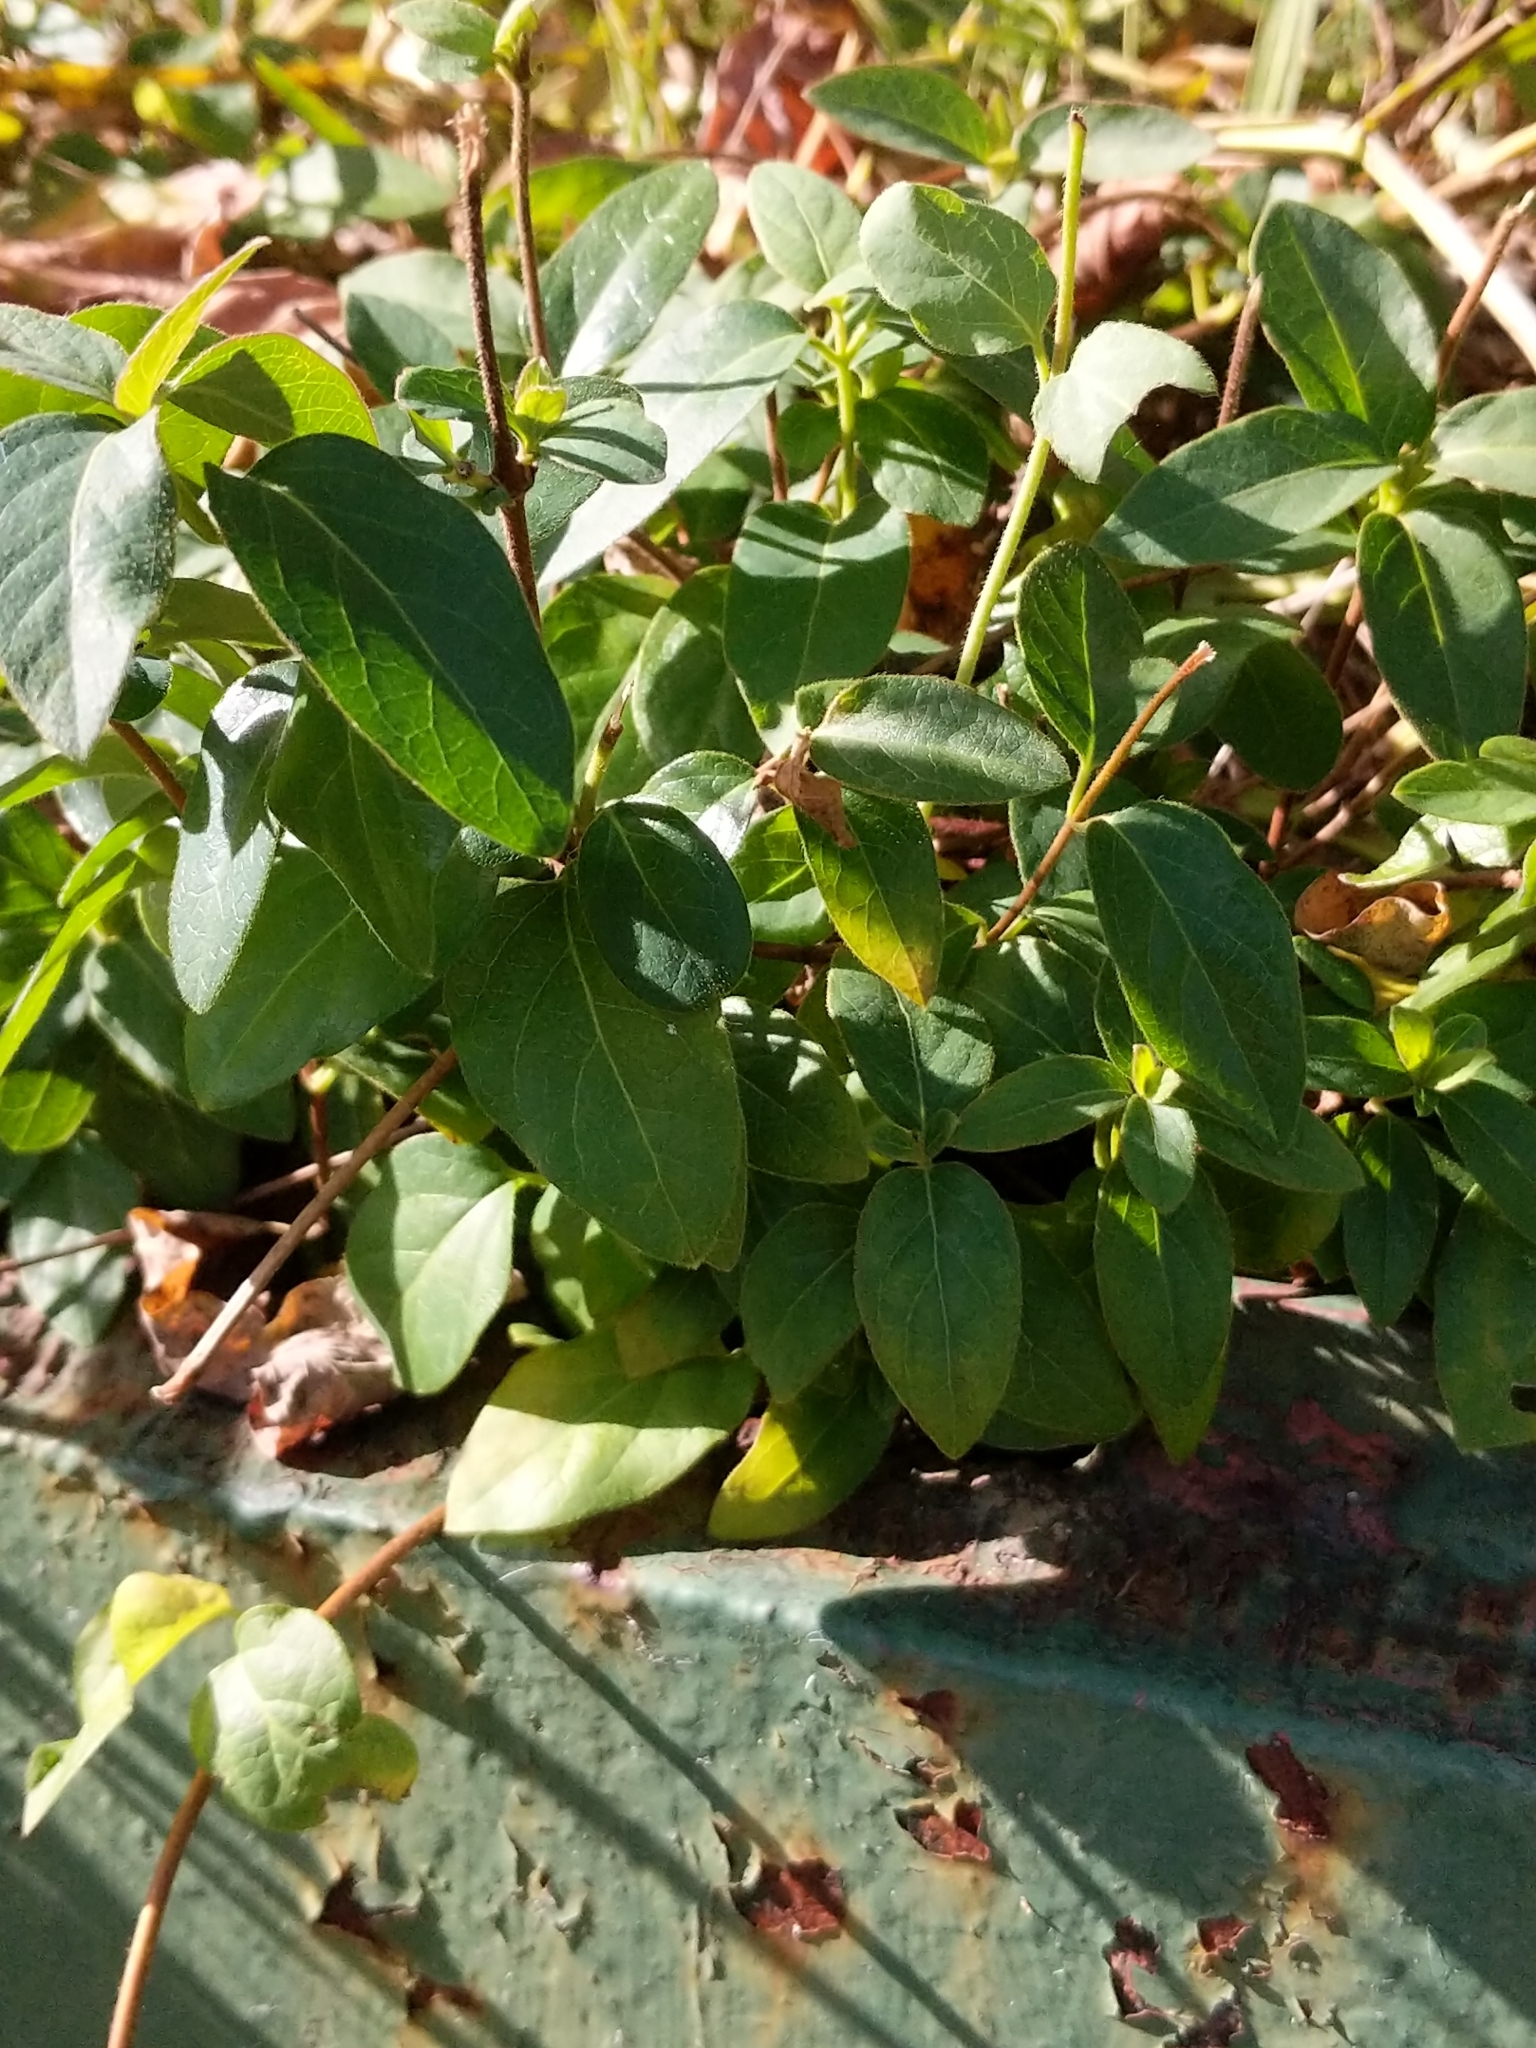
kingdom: Plantae
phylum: Tracheophyta
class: Magnoliopsida
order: Dipsacales
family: Caprifoliaceae
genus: Lonicera
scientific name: Lonicera japonica
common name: Japanese honeysuckle
